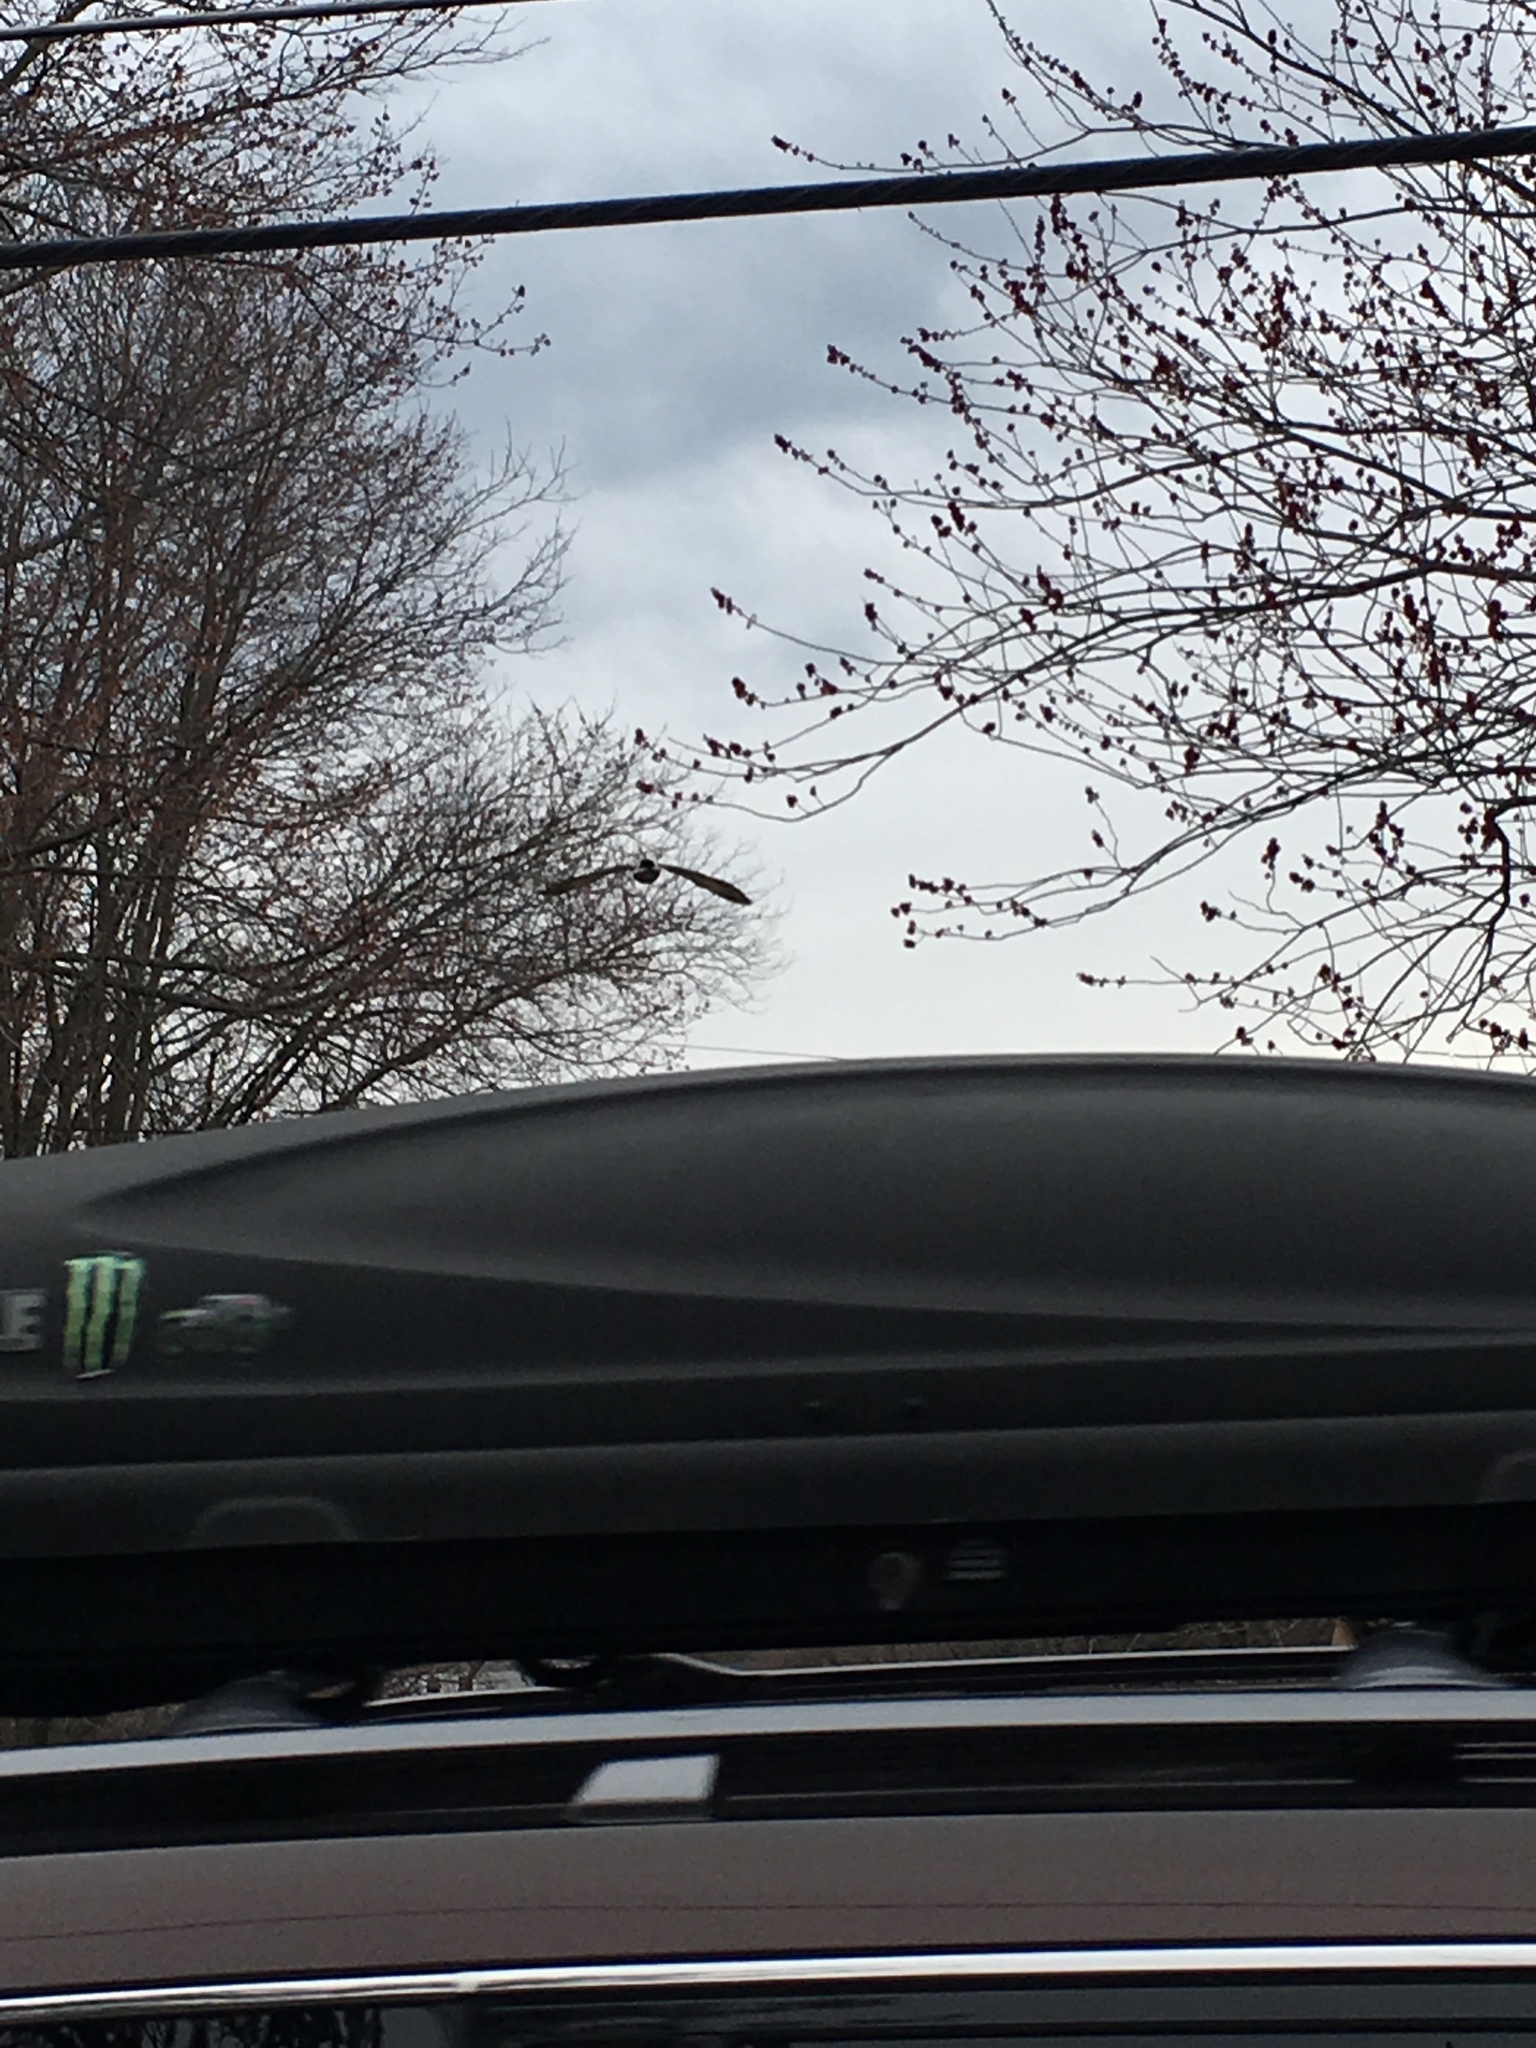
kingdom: Animalia
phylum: Chordata
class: Aves
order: Anseriformes
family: Anatidae
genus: Anas
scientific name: Anas platyrhynchos
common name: Mallard
